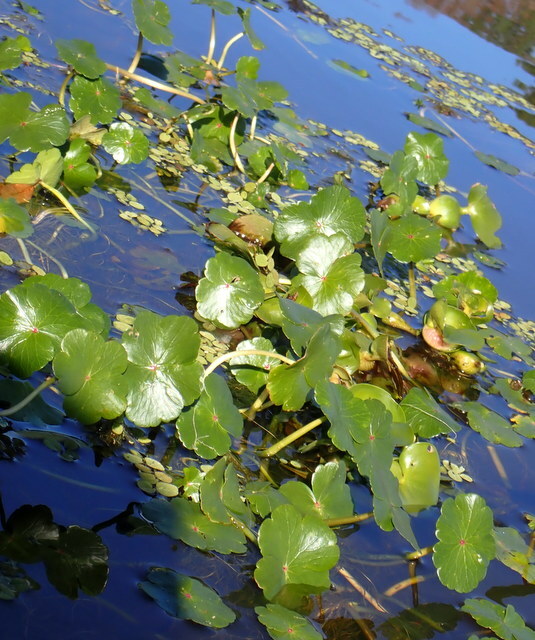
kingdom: Plantae
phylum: Tracheophyta
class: Magnoliopsida
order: Apiales
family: Araliaceae
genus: Hydrocotyle
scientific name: Hydrocotyle ranunculoides
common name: Floating pennywort
